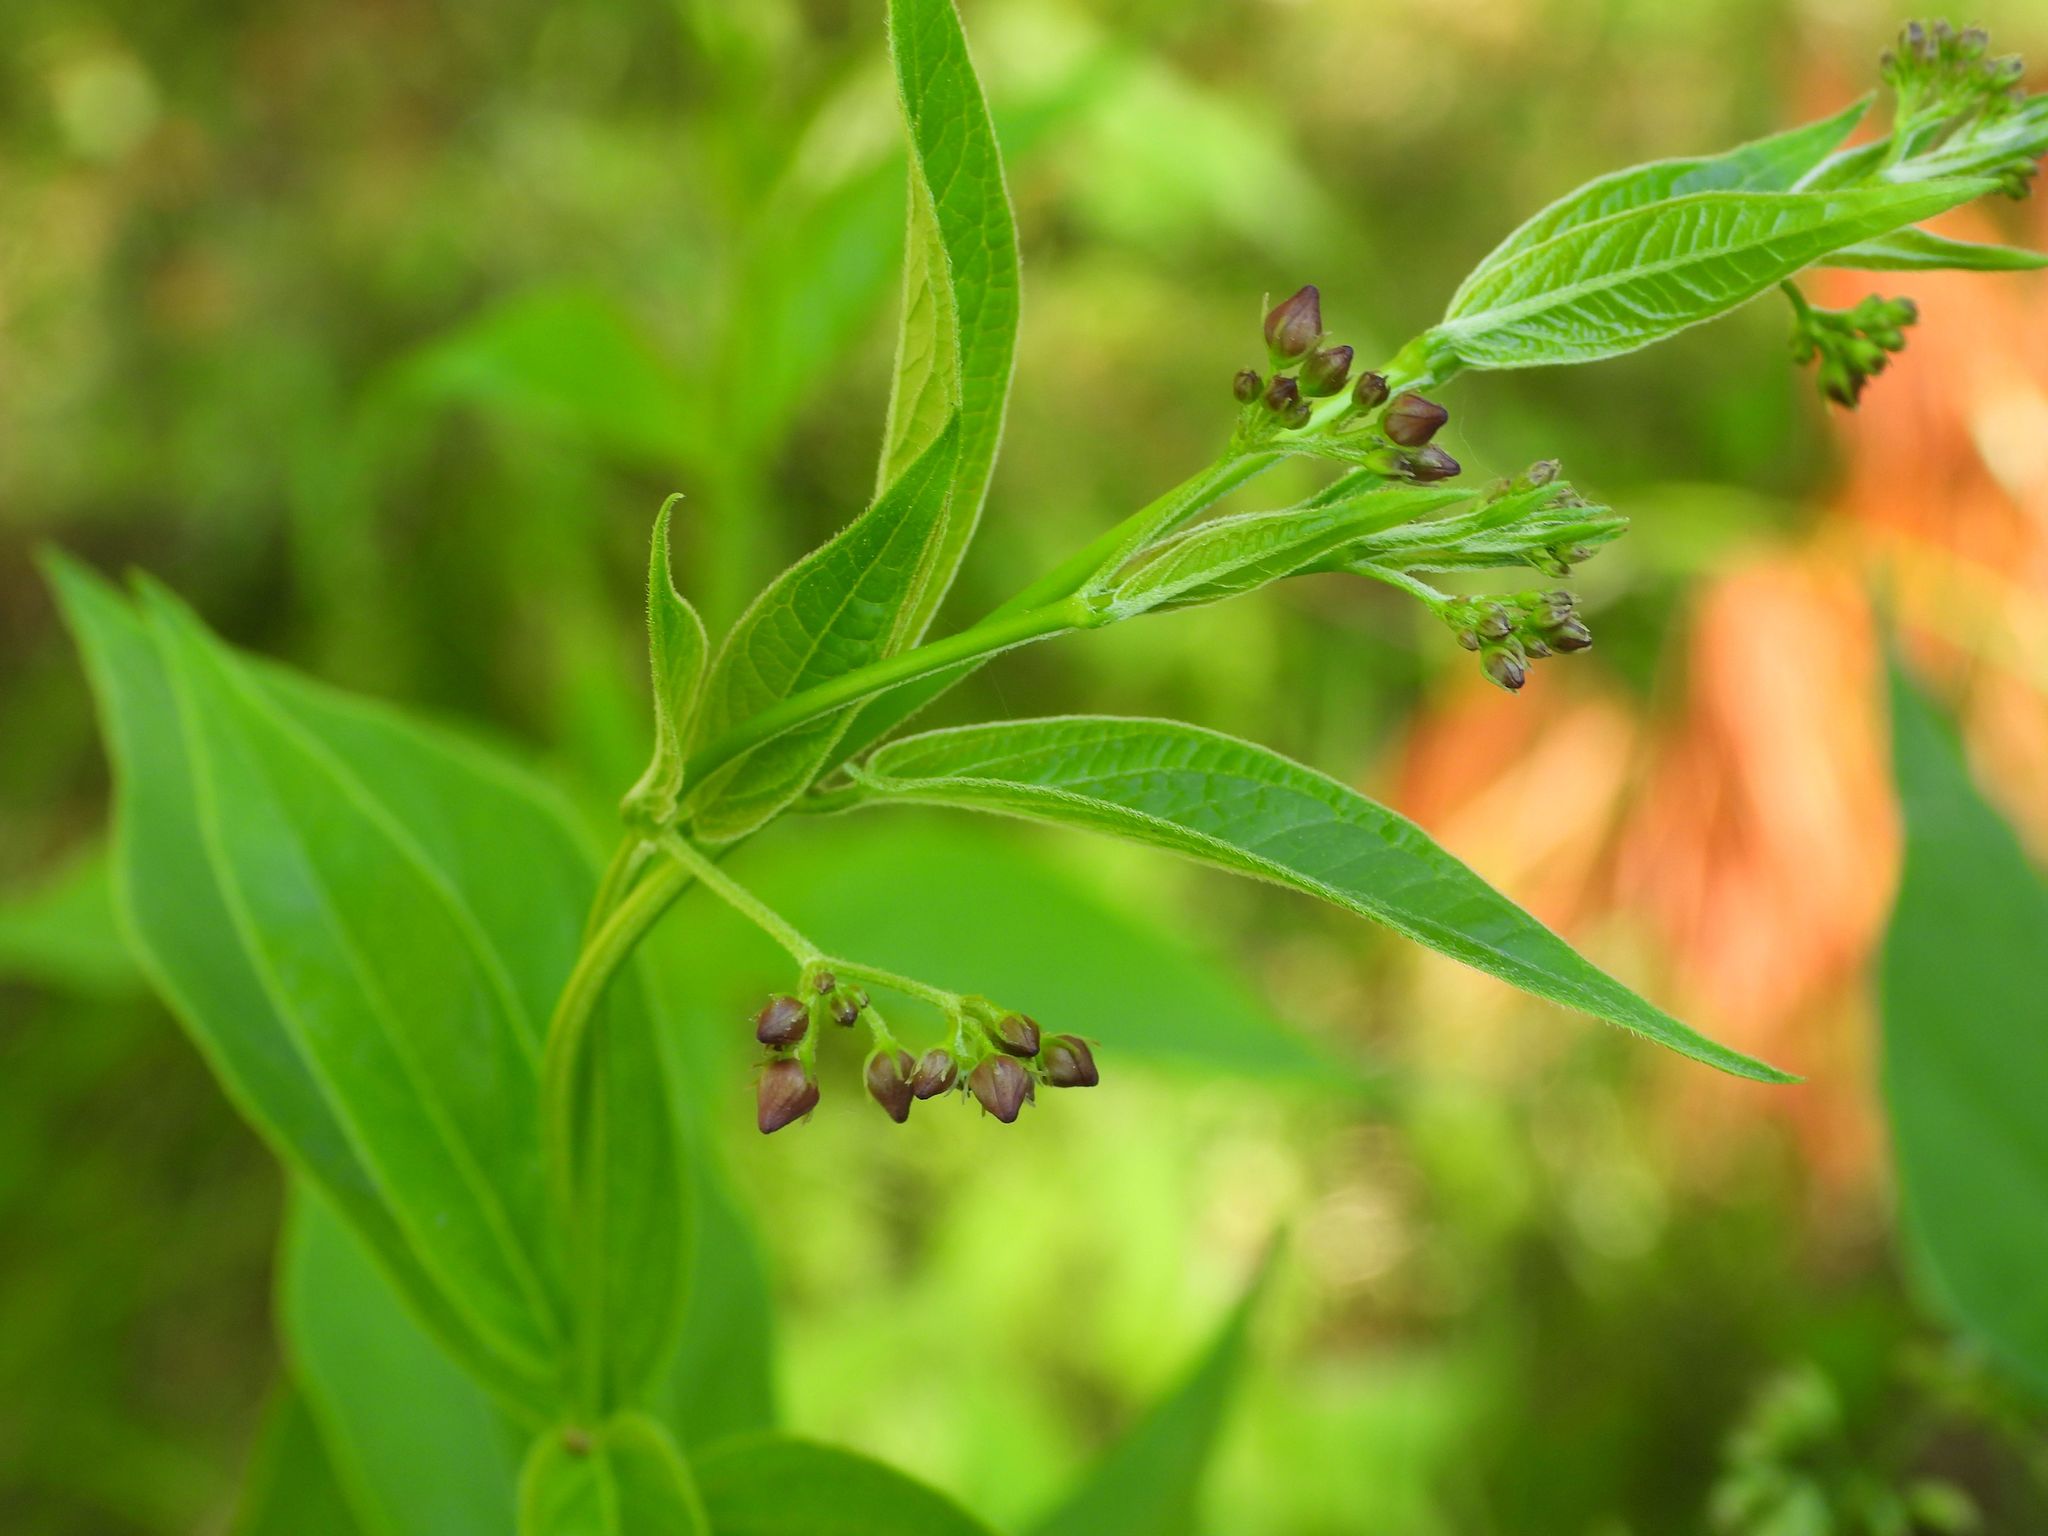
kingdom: Plantae
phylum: Tracheophyta
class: Magnoliopsida
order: Gentianales
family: Apocynaceae
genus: Vincetoxicum
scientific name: Vincetoxicum rossicum
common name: Dog-strangling vine
